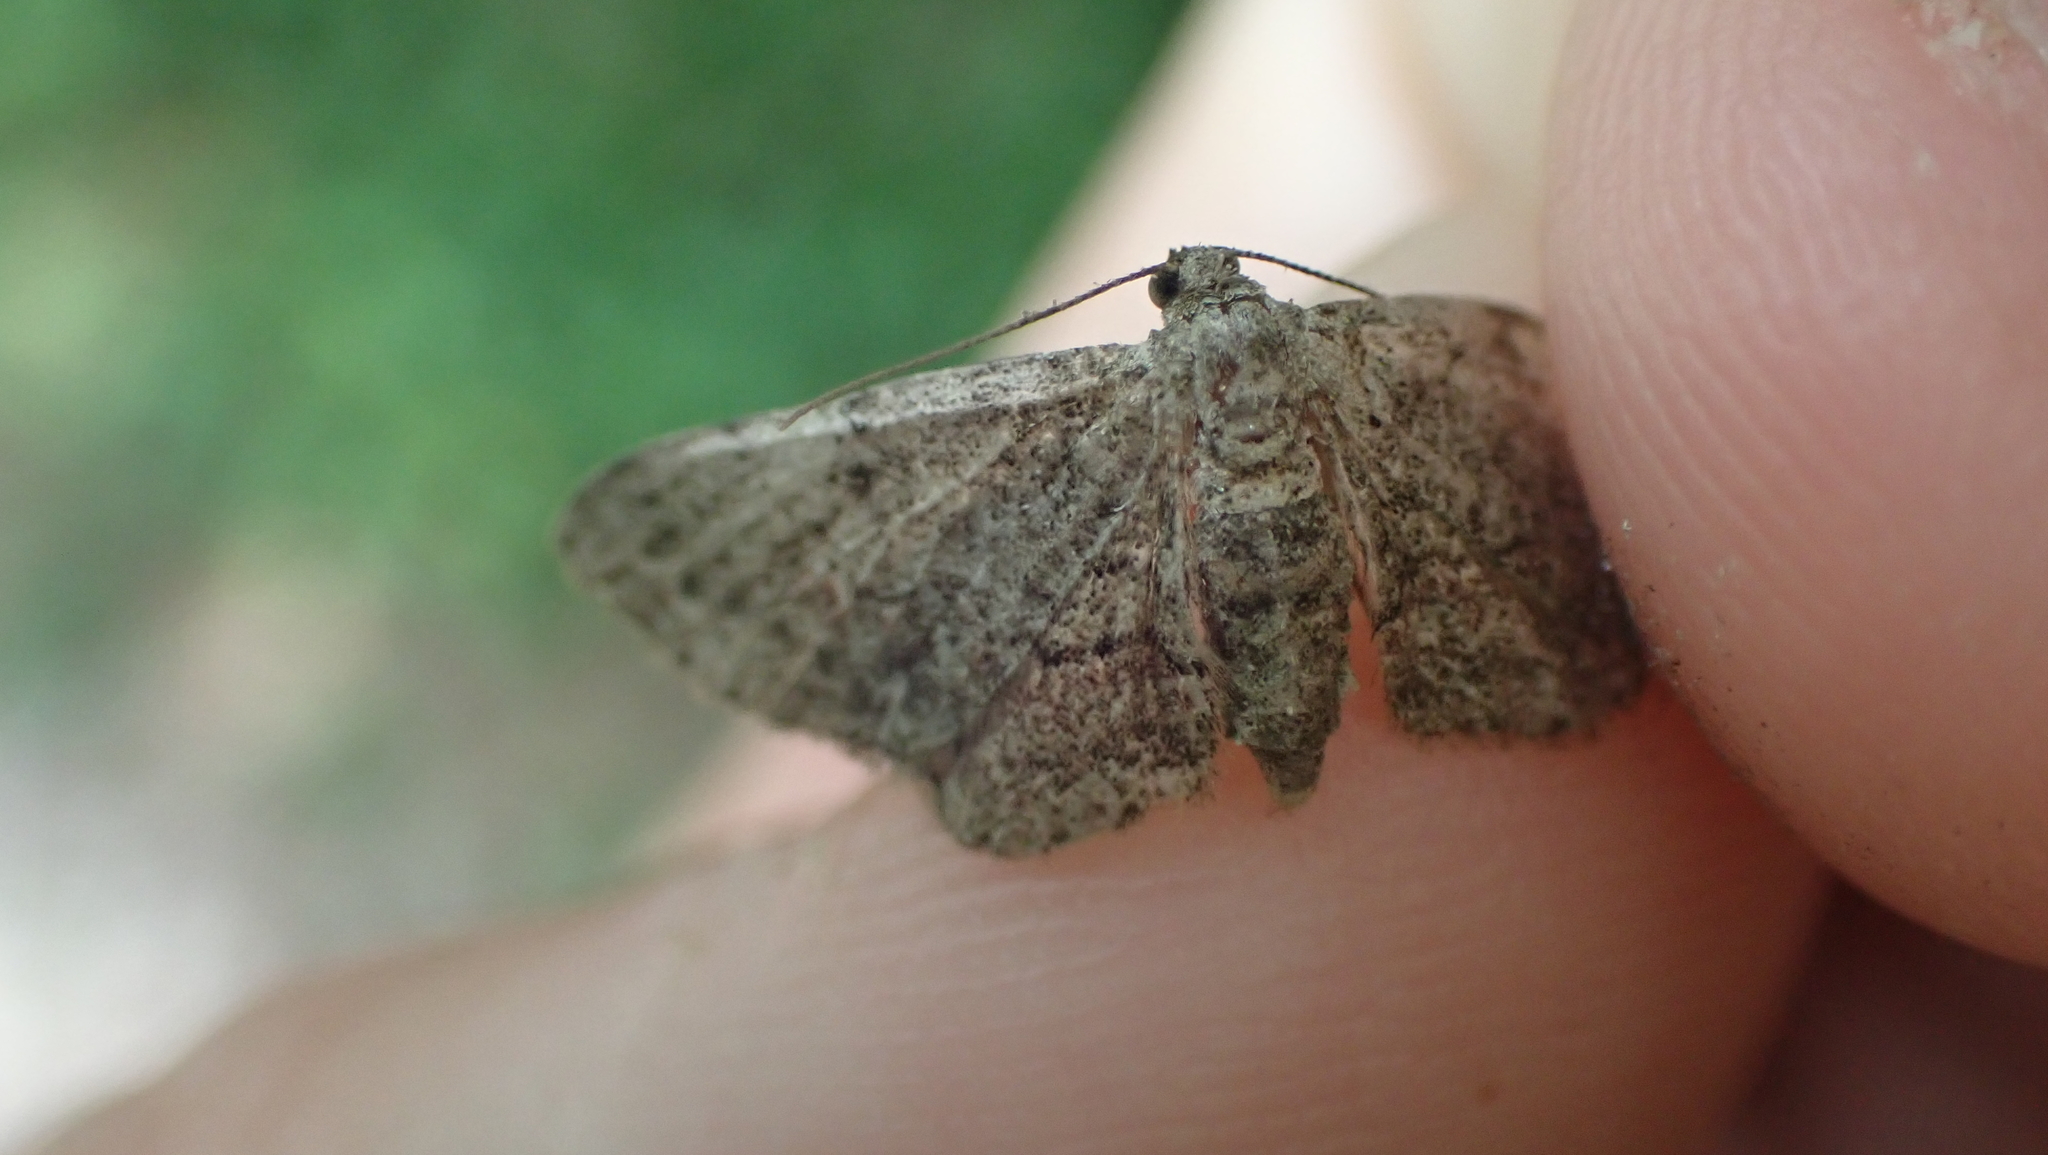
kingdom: Animalia
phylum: Arthropoda
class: Insecta
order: Lepidoptera
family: Geometridae
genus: Glenoides
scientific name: Glenoides texanaria
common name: Texas gray
